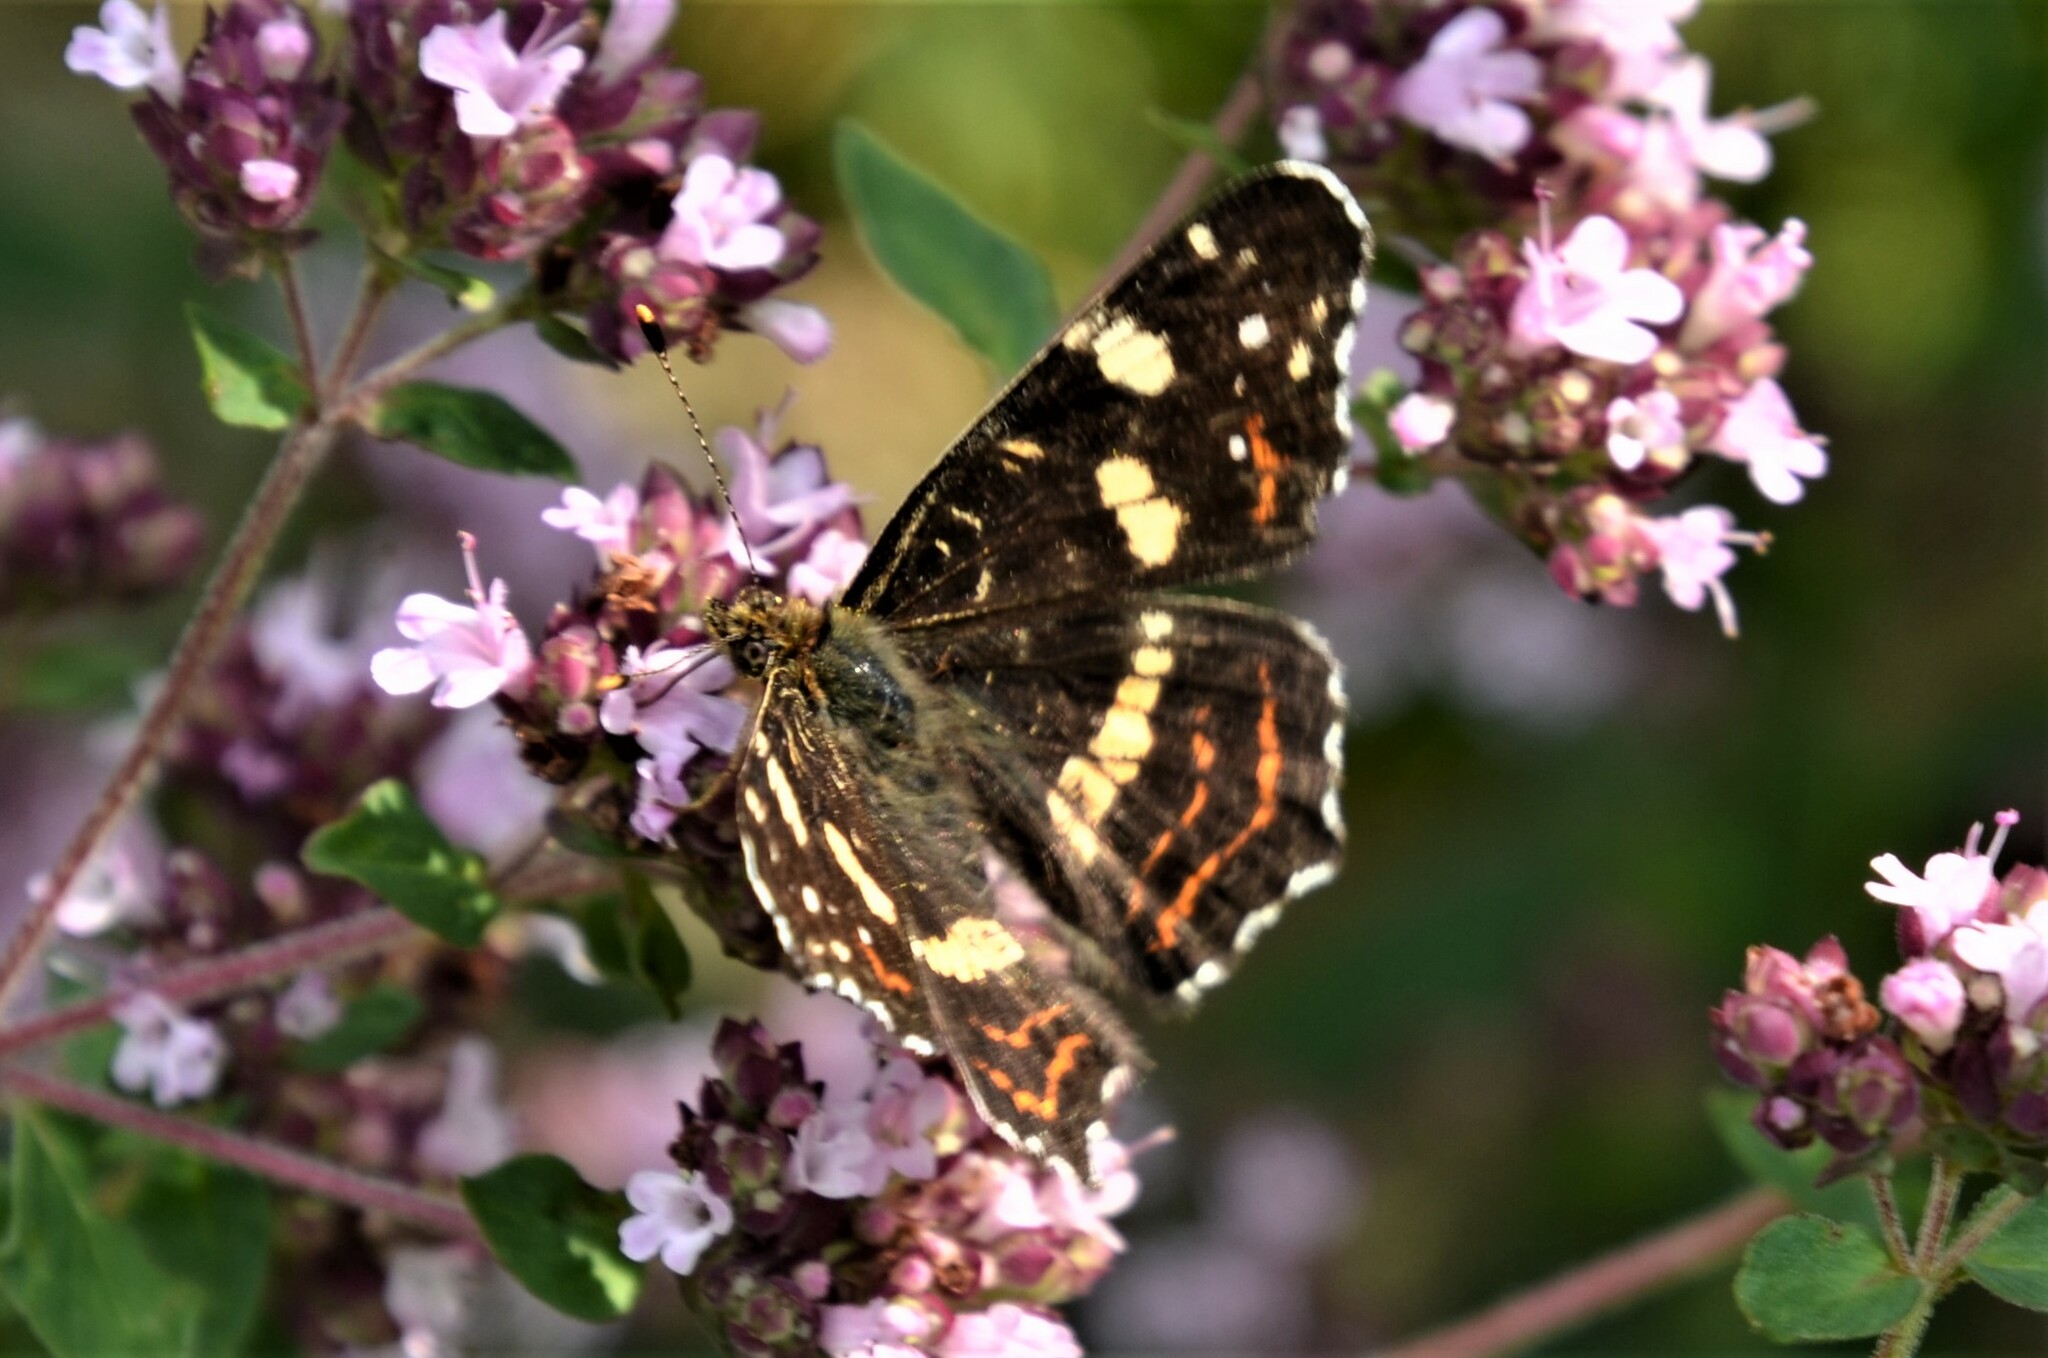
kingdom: Animalia
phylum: Arthropoda
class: Insecta
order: Lepidoptera
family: Nymphalidae
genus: Araschnia
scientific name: Araschnia levana
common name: Map butterfly
